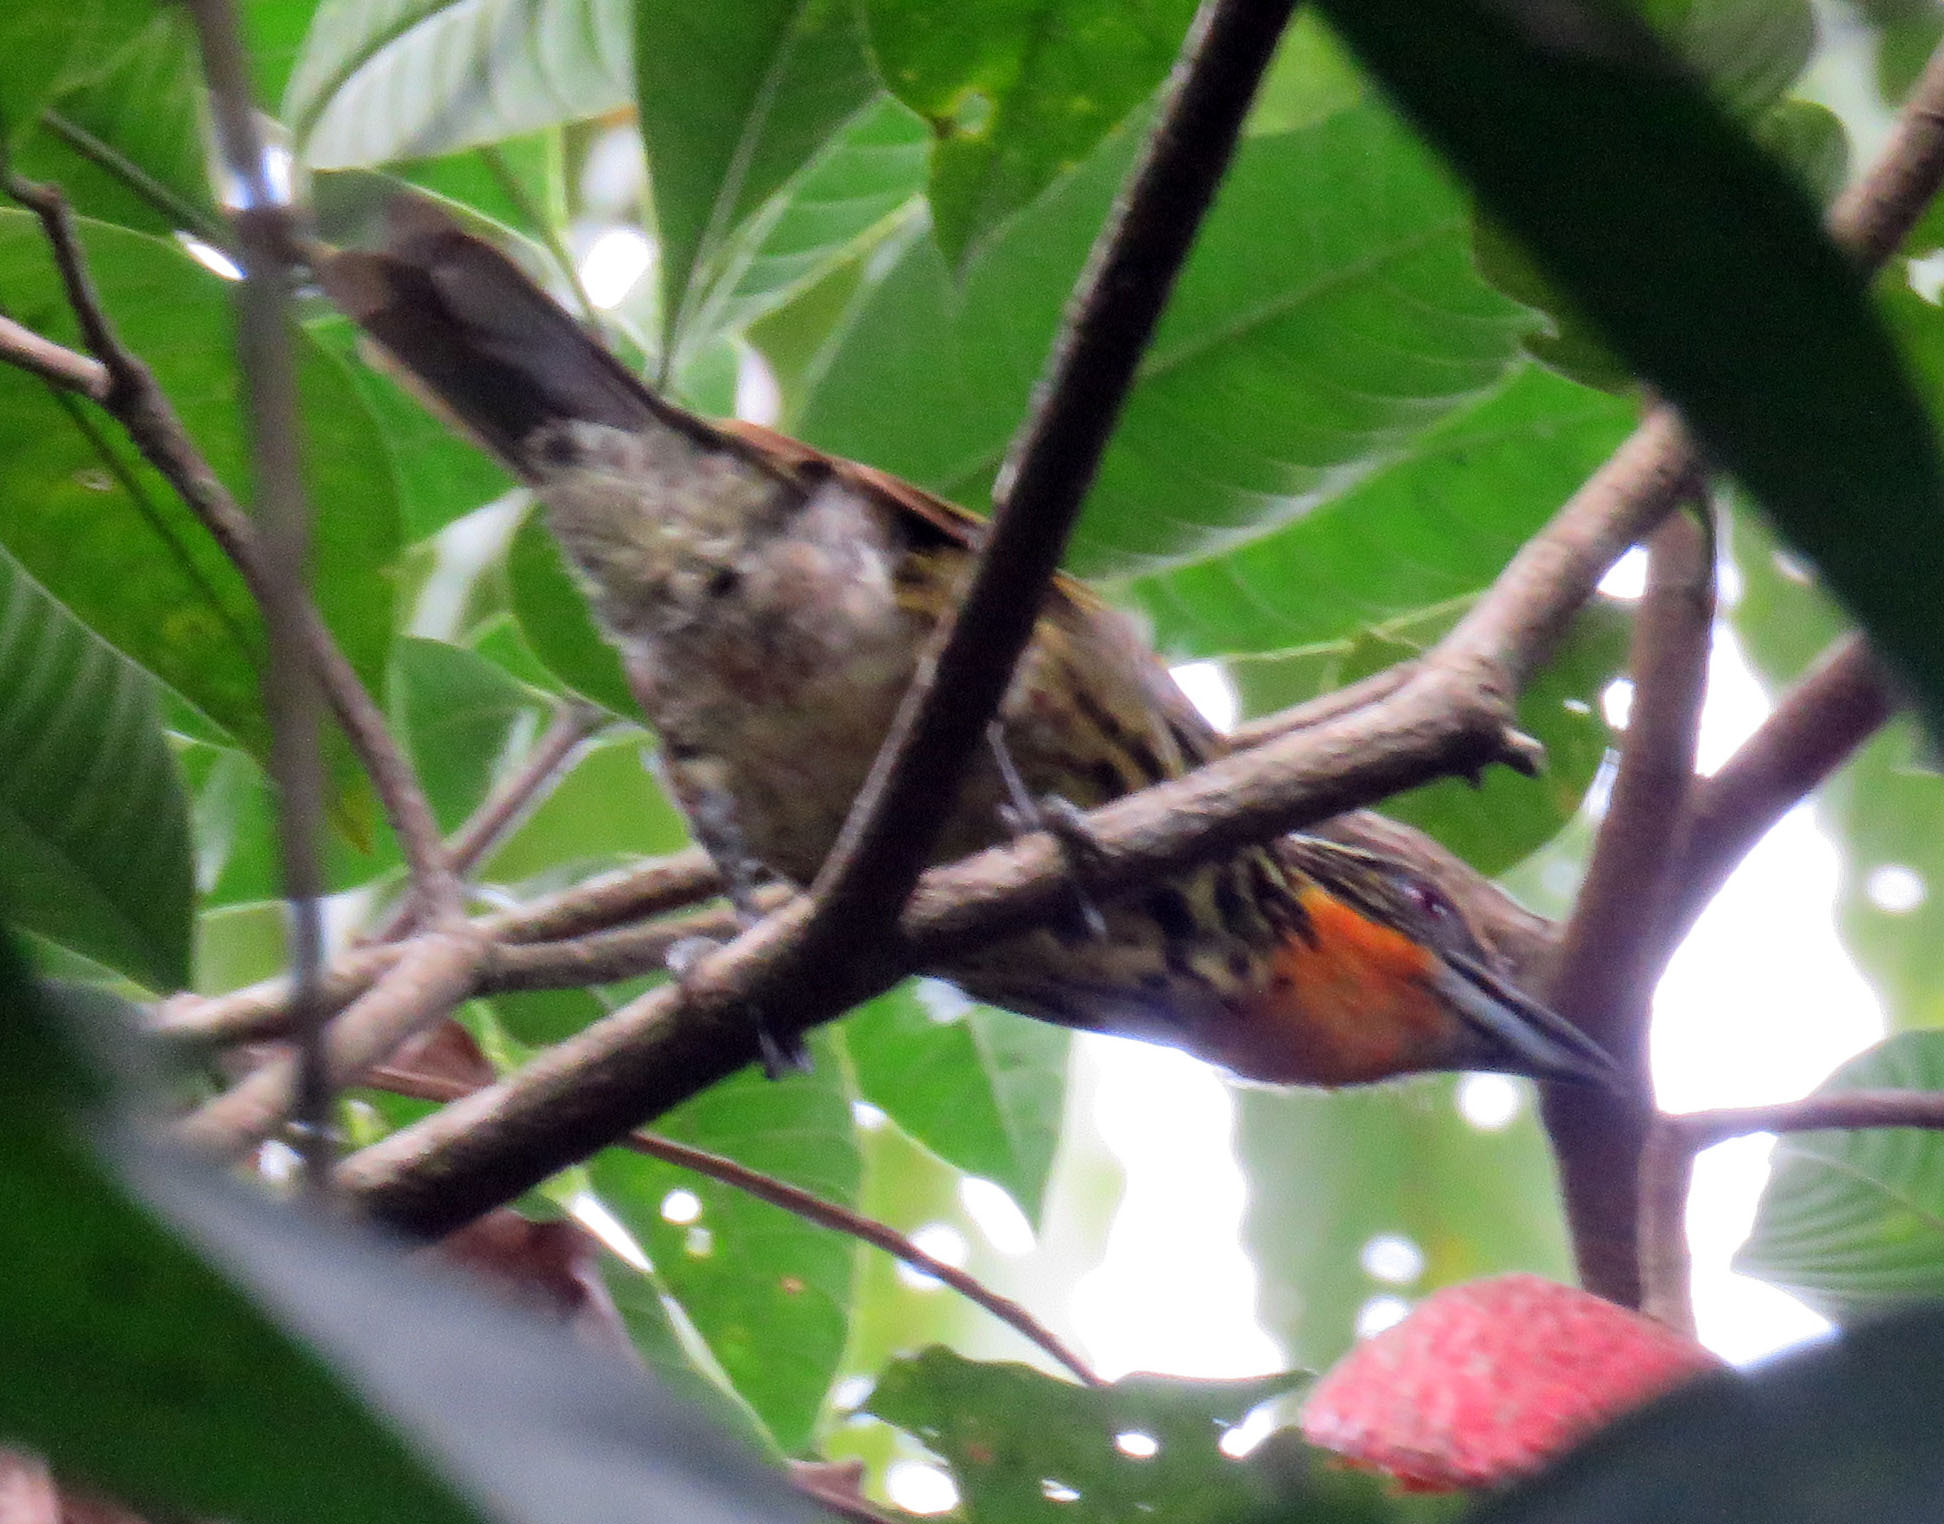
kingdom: Animalia
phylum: Chordata
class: Aves
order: Piciformes
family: Capitonidae
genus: Capito
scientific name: Capito auratus
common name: Gilded barbet
